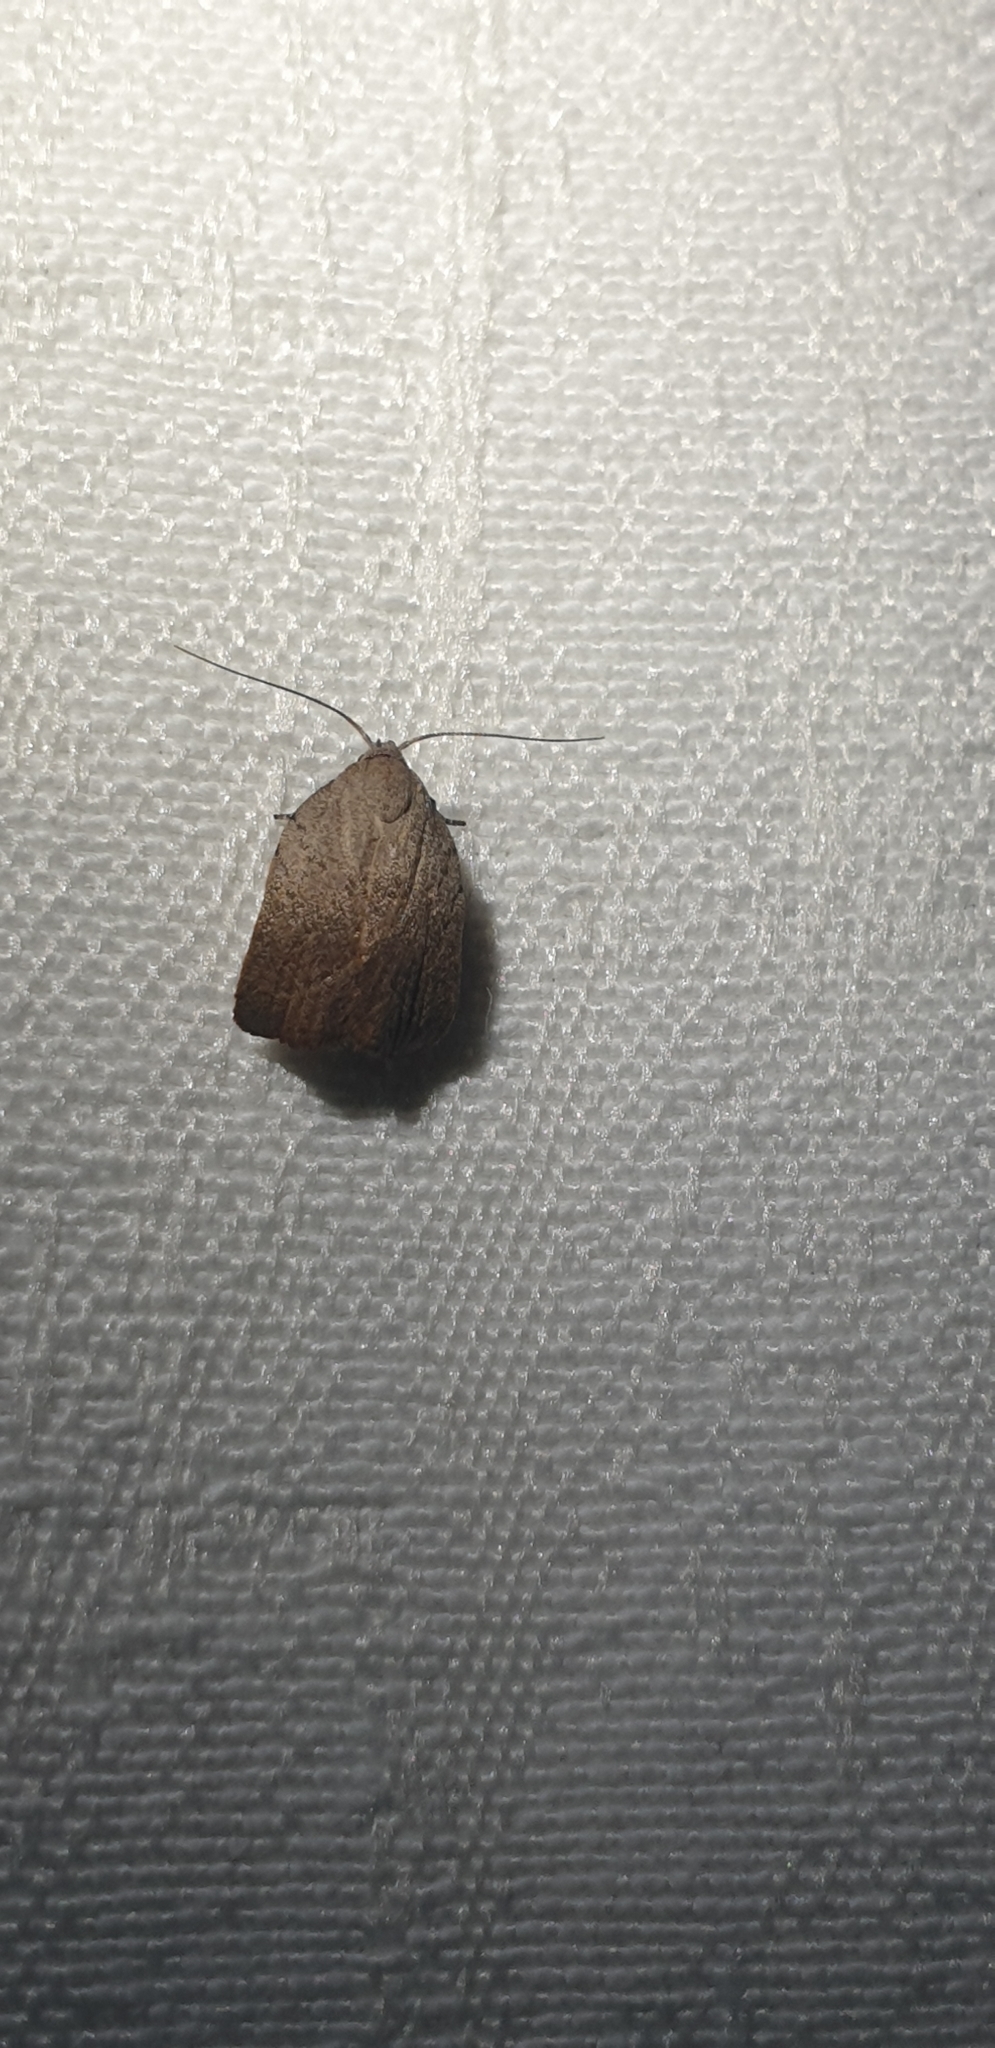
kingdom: Animalia
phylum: Arthropoda
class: Insecta
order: Lepidoptera
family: Oecophoridae
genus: Tortricopsis
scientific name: Tortricopsis pyroptis
